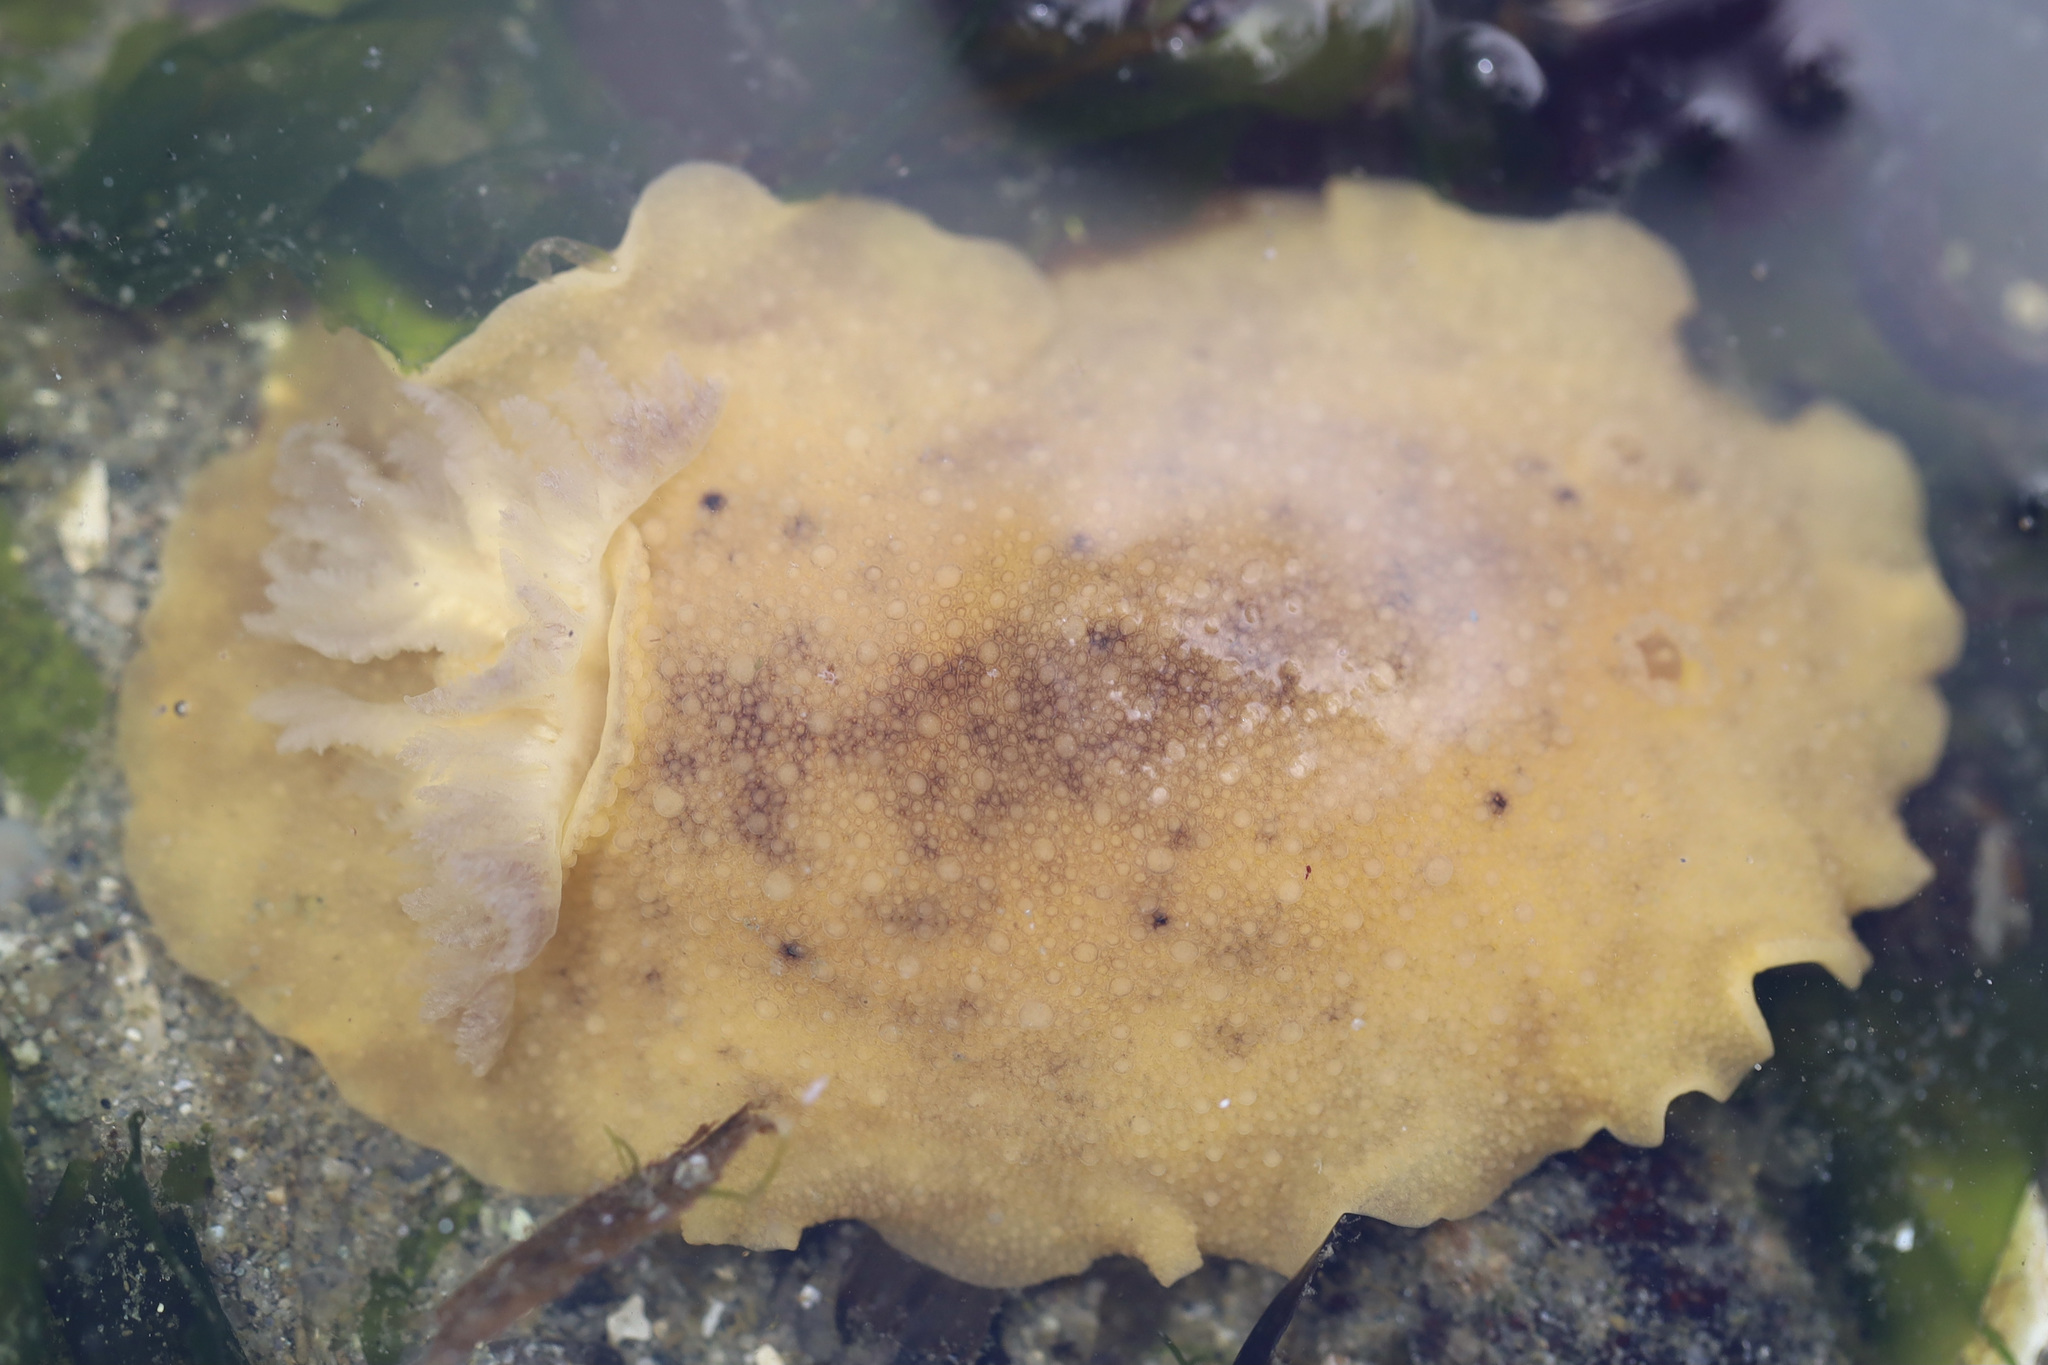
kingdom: Animalia
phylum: Mollusca
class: Gastropoda
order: Nudibranchia
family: Discodorididae
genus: Geitodoris
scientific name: Geitodoris heathi
